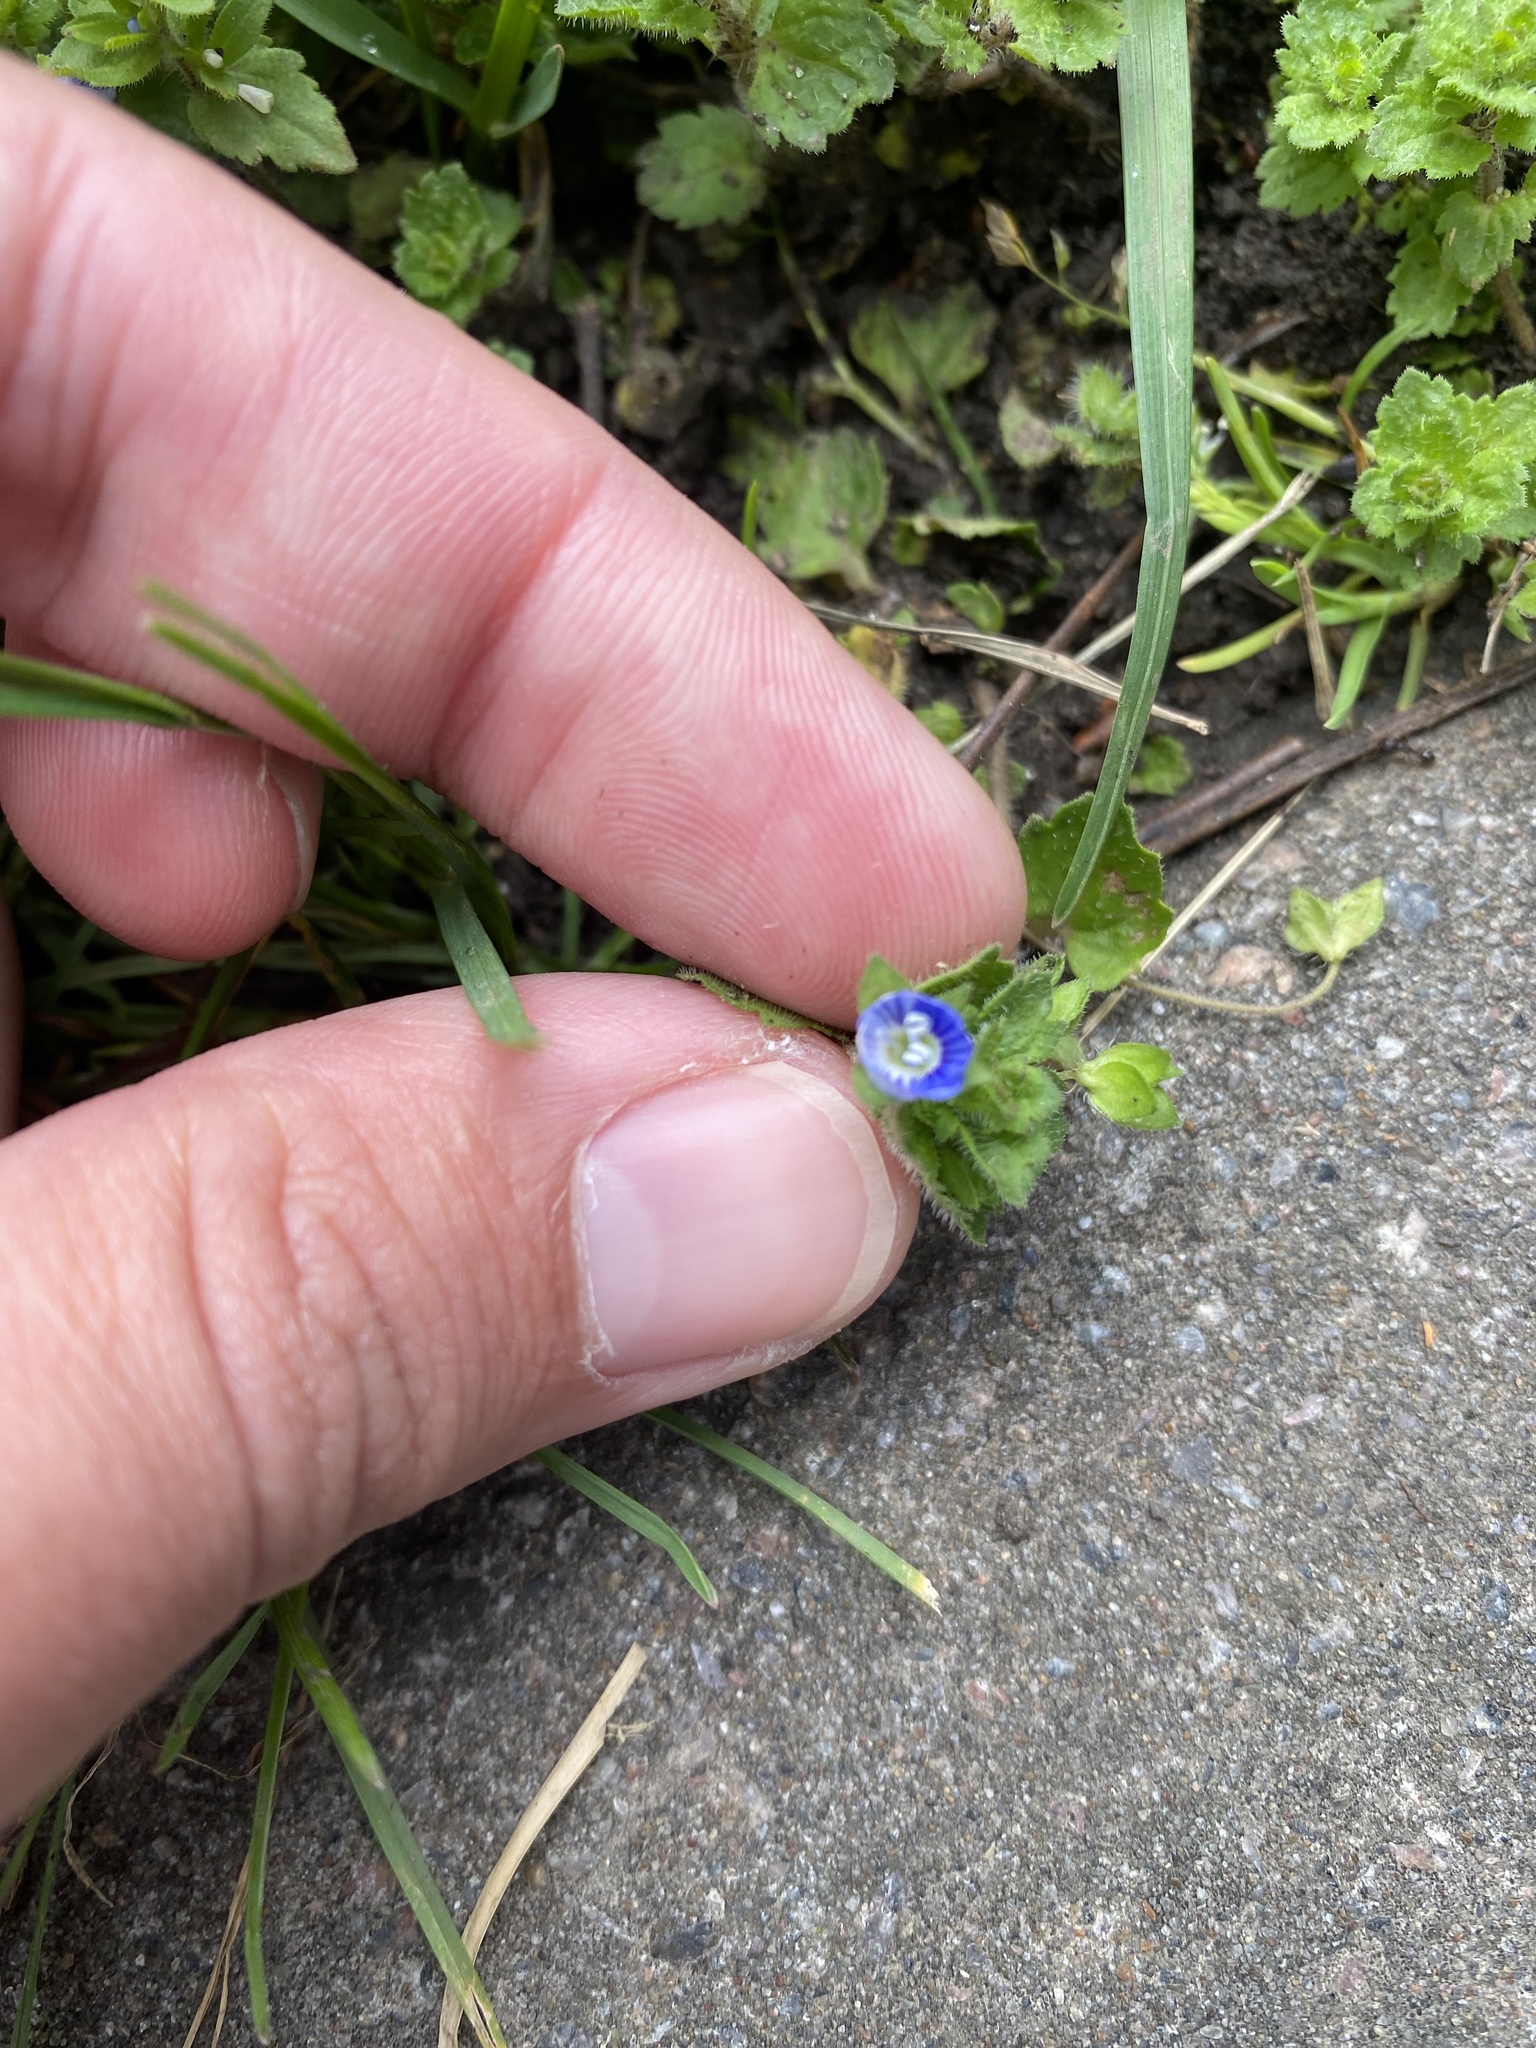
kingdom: Plantae
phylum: Tracheophyta
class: Magnoliopsida
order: Lamiales
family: Plantaginaceae
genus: Veronica
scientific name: Veronica persica
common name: Common field-speedwell
